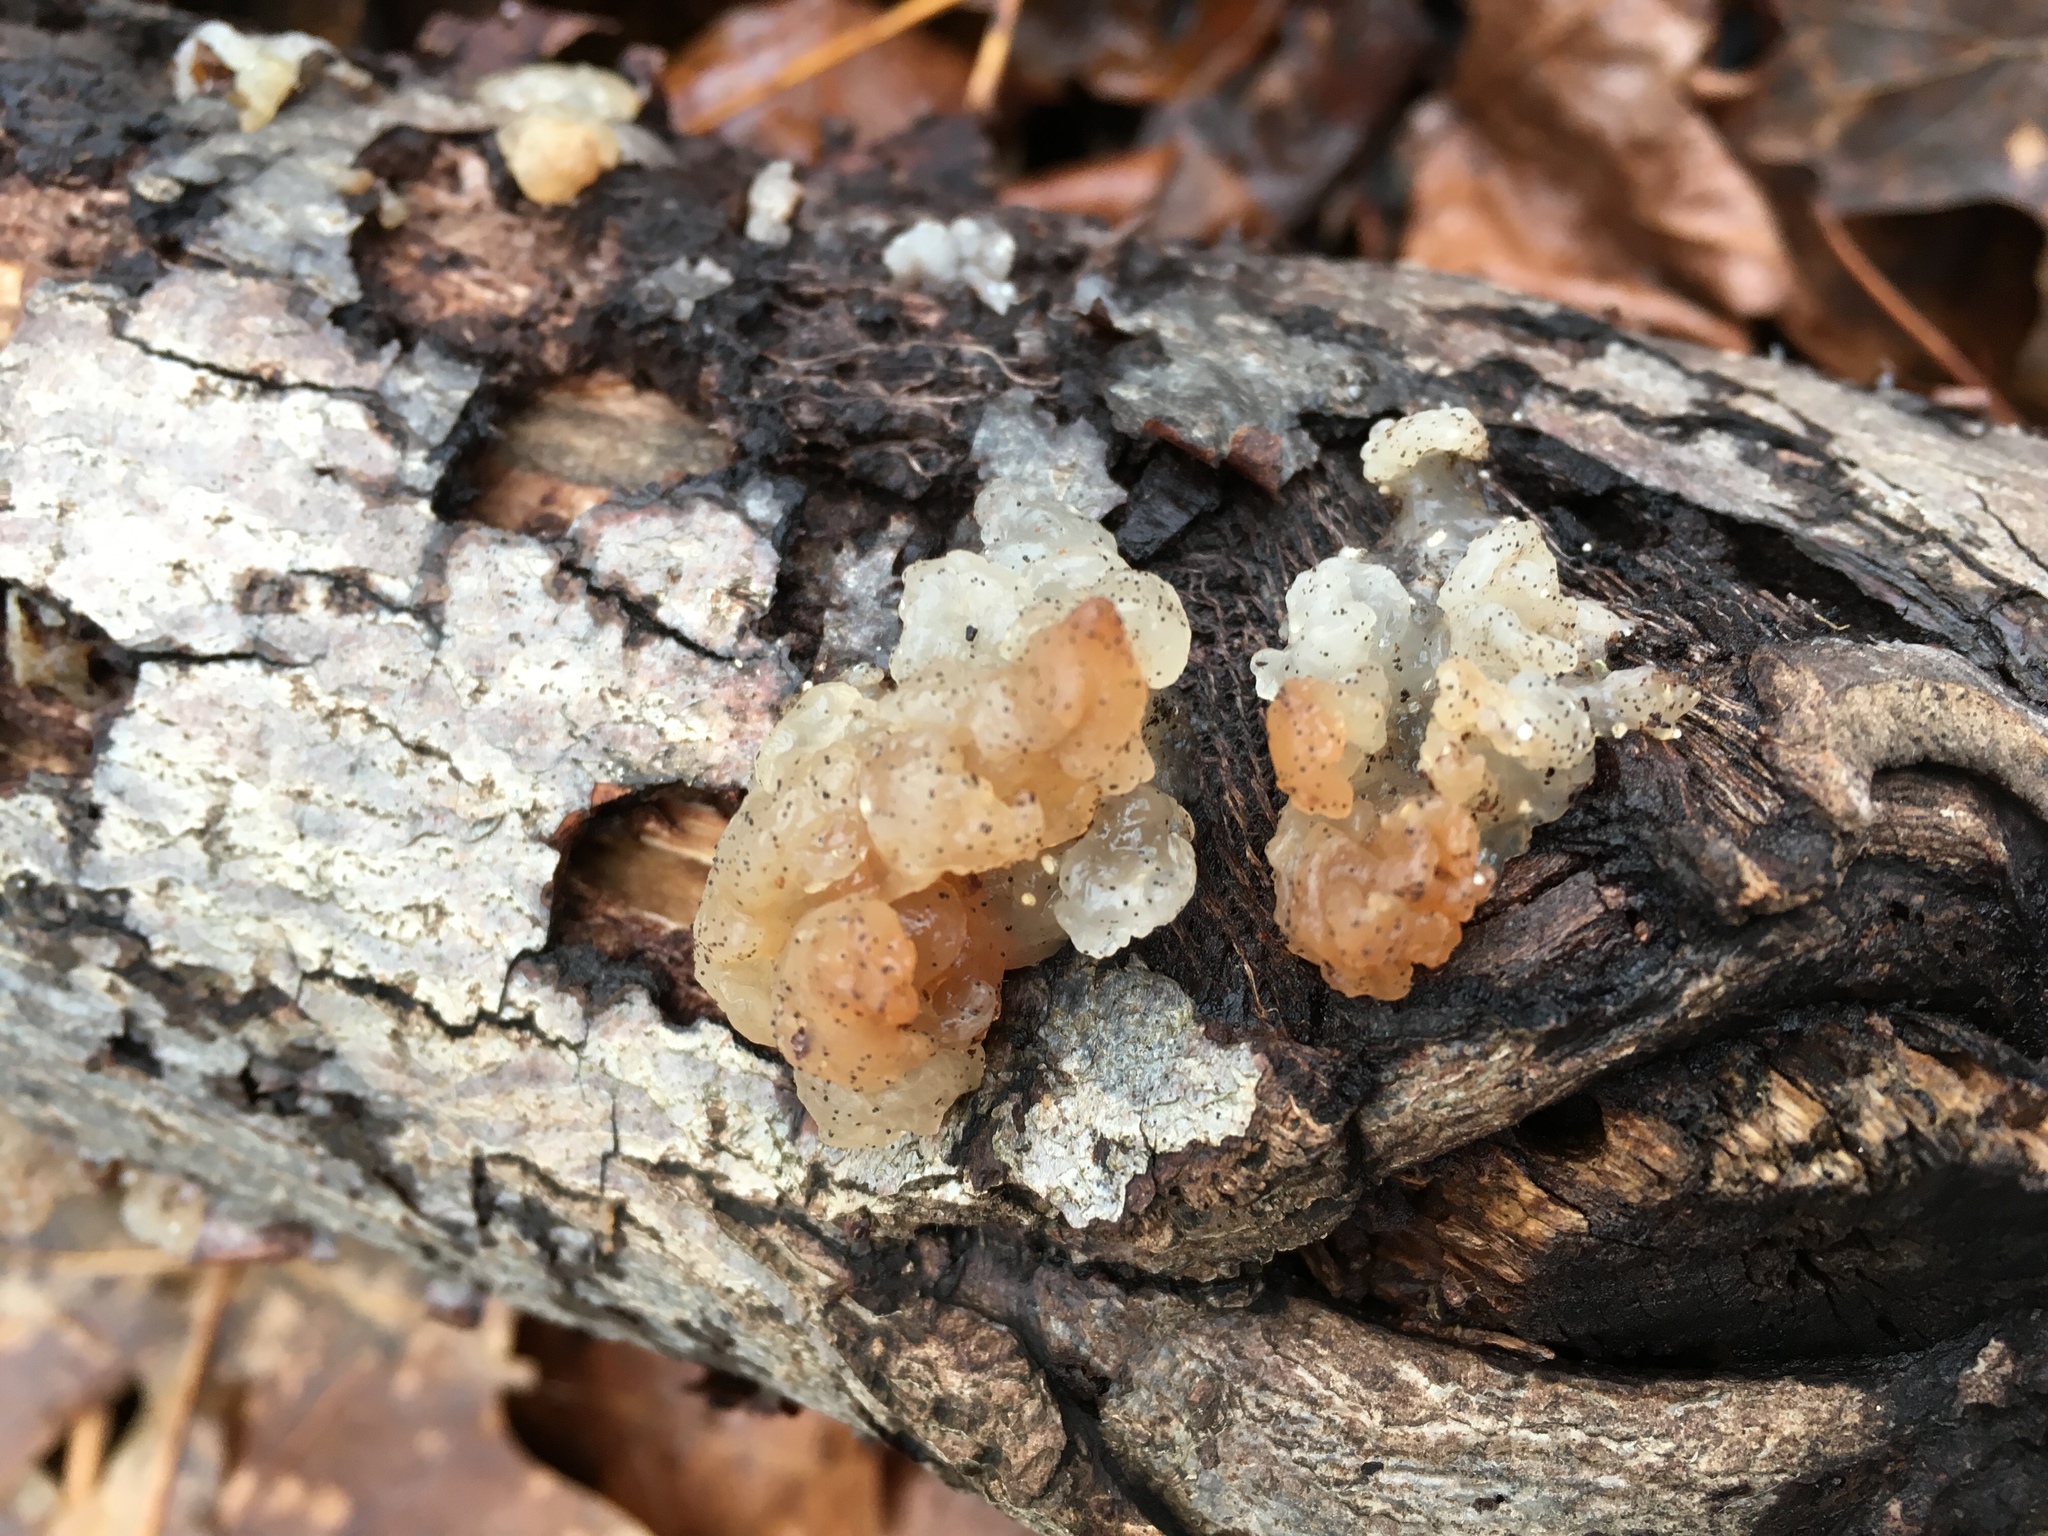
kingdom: Fungi
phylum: Basidiomycota
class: Agaricomycetes
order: Auriculariales
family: Hyaloriaceae
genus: Myxarium
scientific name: Myxarium nucleatum
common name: Crystal brain fungus
